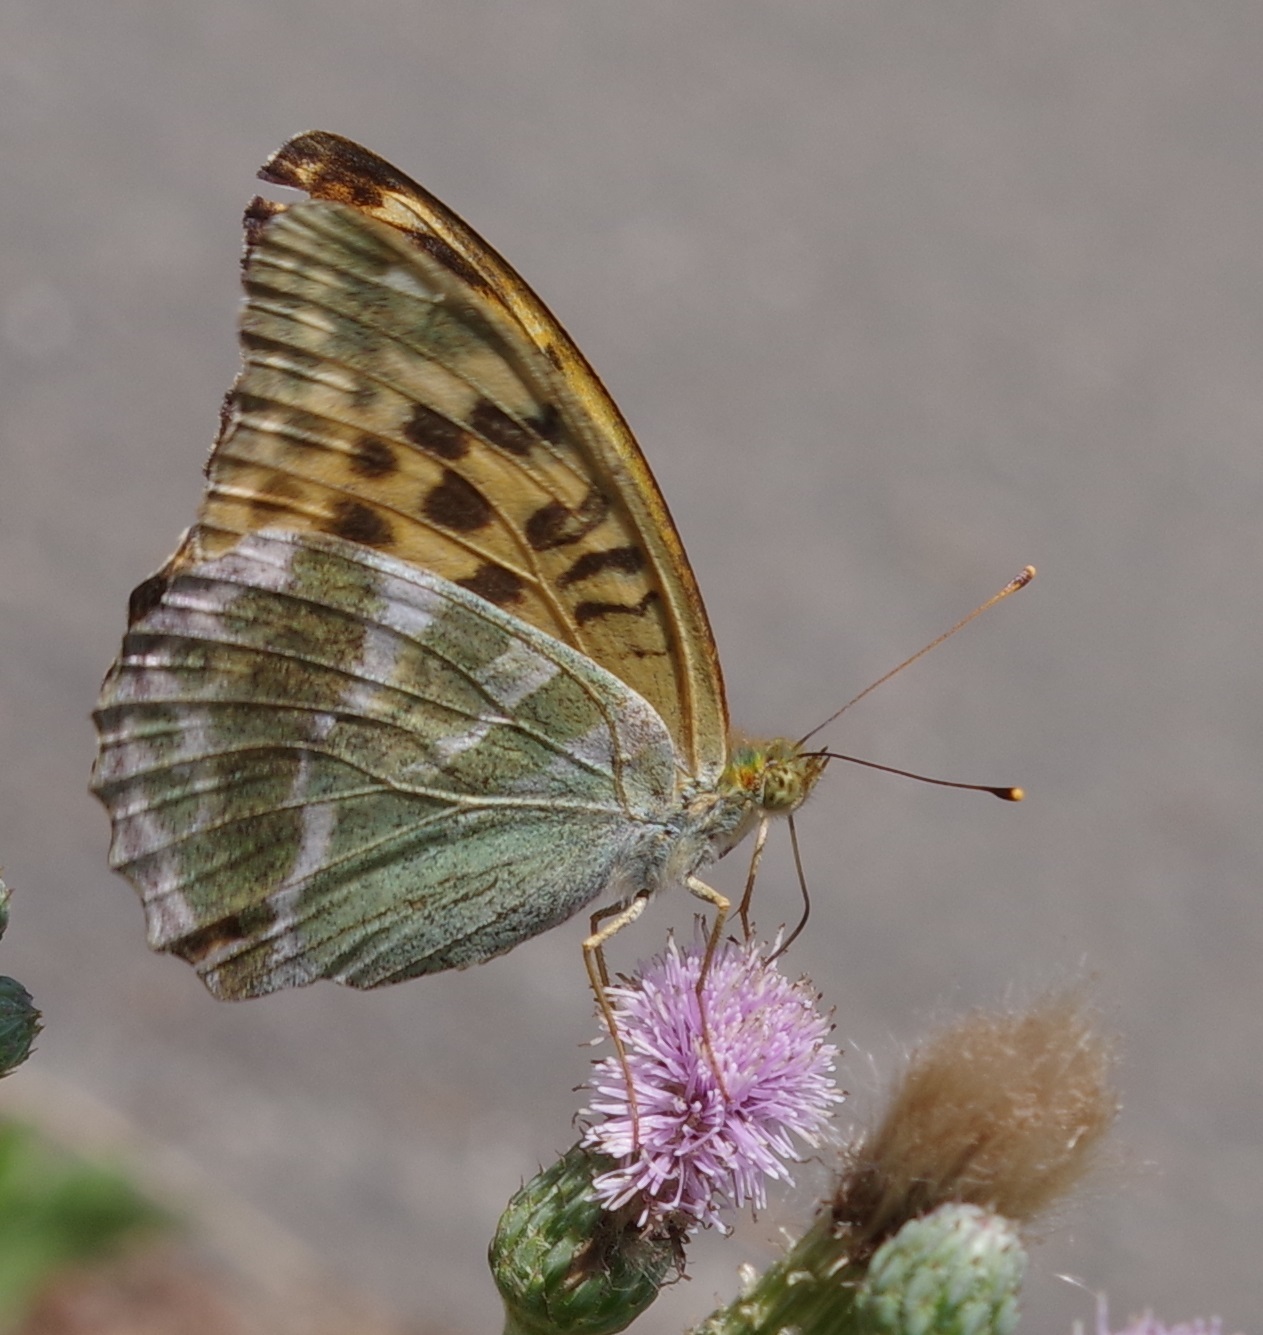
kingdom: Animalia
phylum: Arthropoda
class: Insecta
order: Lepidoptera
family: Nymphalidae
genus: Argynnis
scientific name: Argynnis paphia
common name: Silver-washed fritillary
